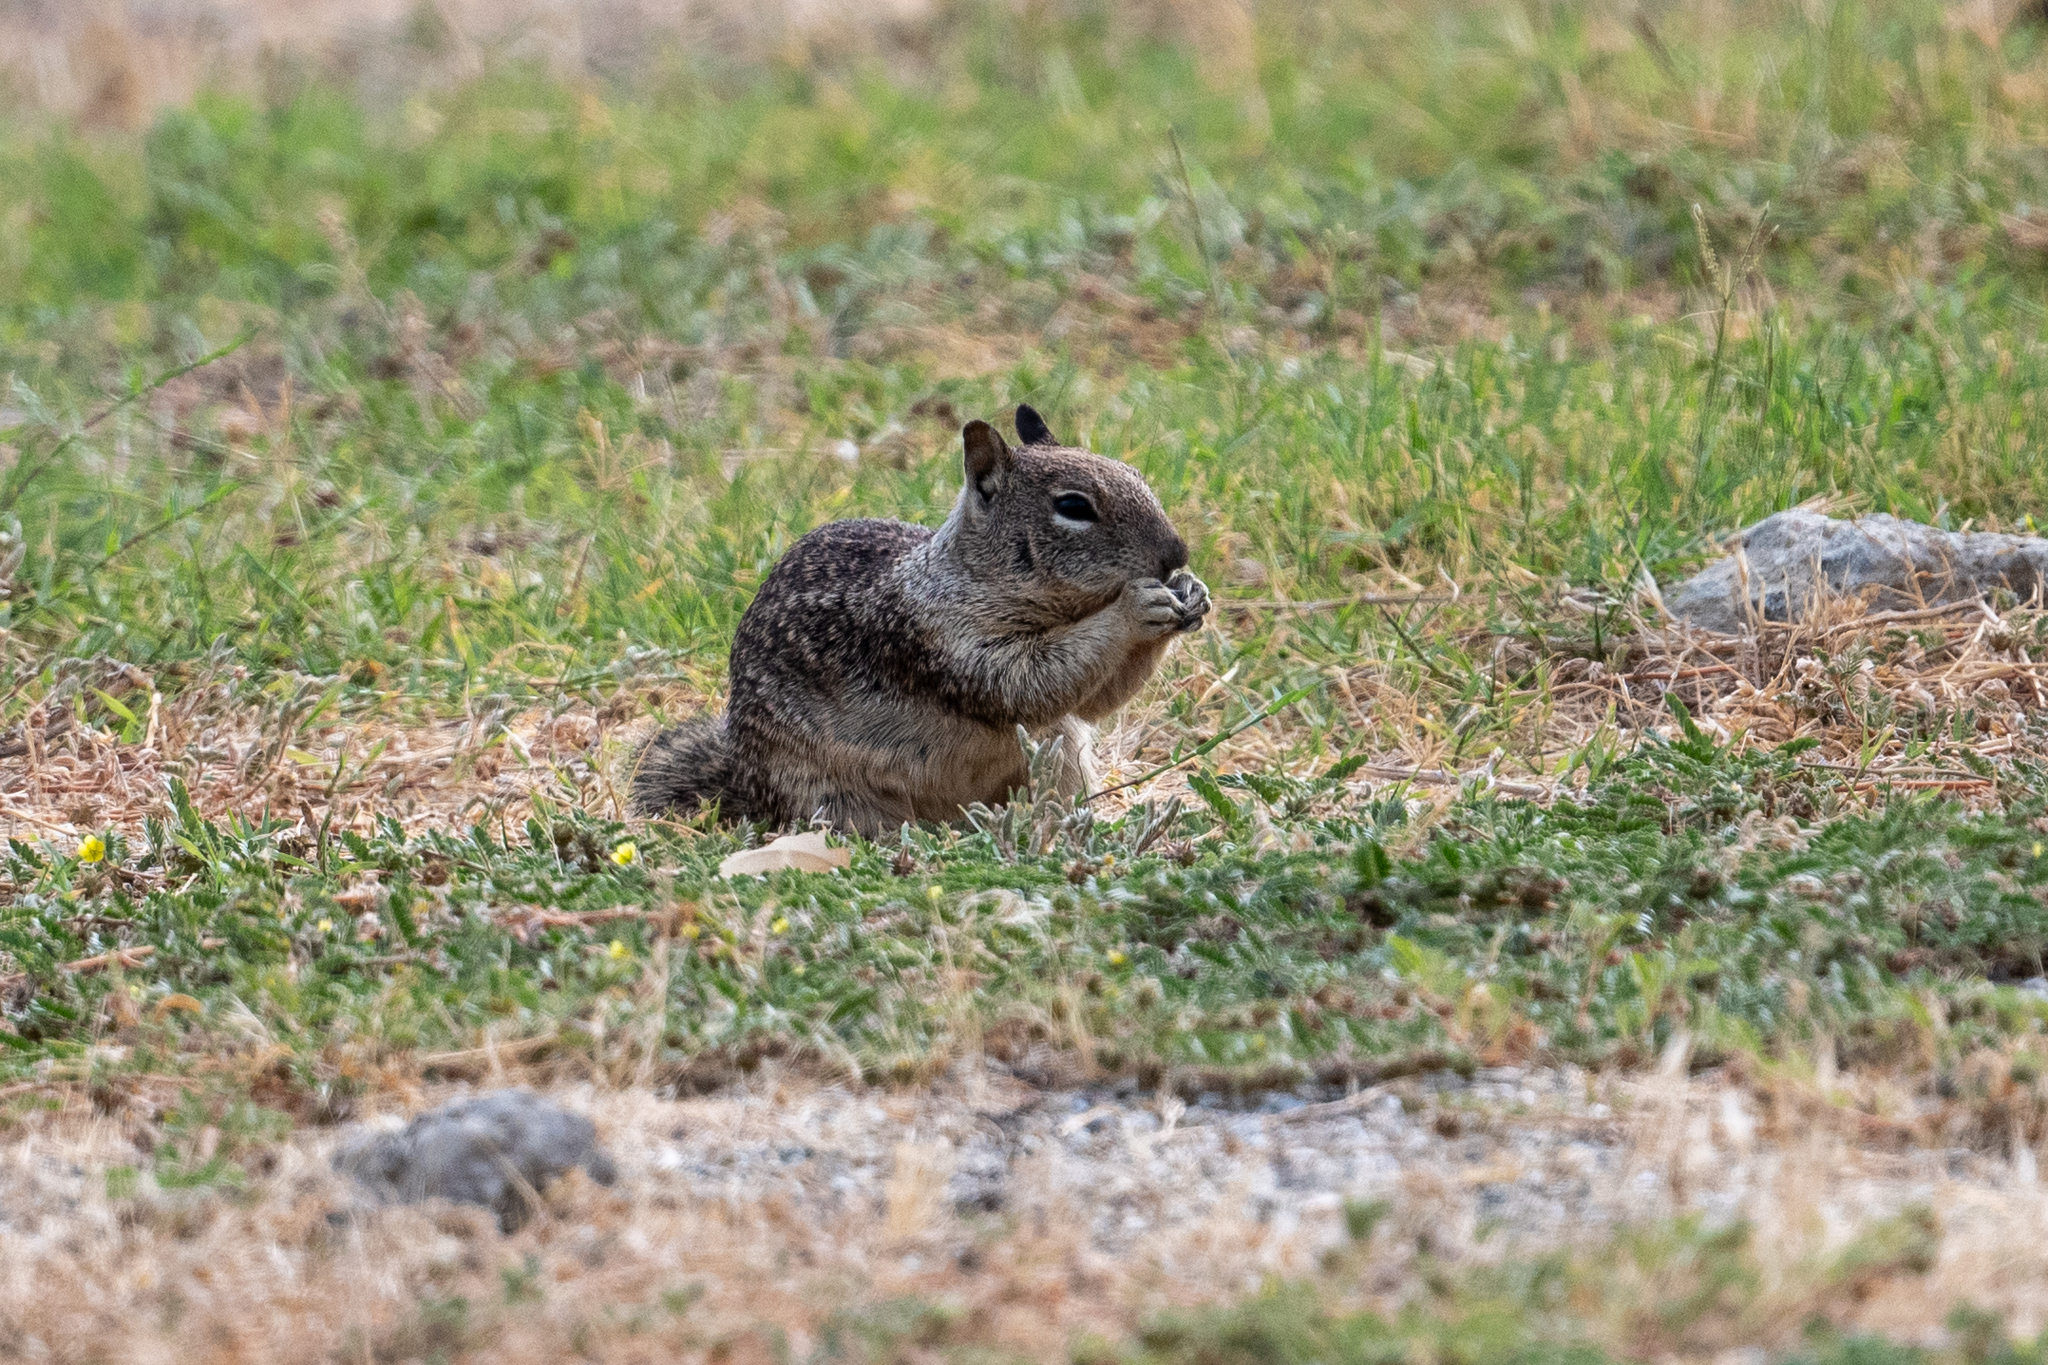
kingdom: Animalia
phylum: Chordata
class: Mammalia
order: Rodentia
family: Sciuridae
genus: Otospermophilus
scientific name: Otospermophilus beecheyi
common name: California ground squirrel
